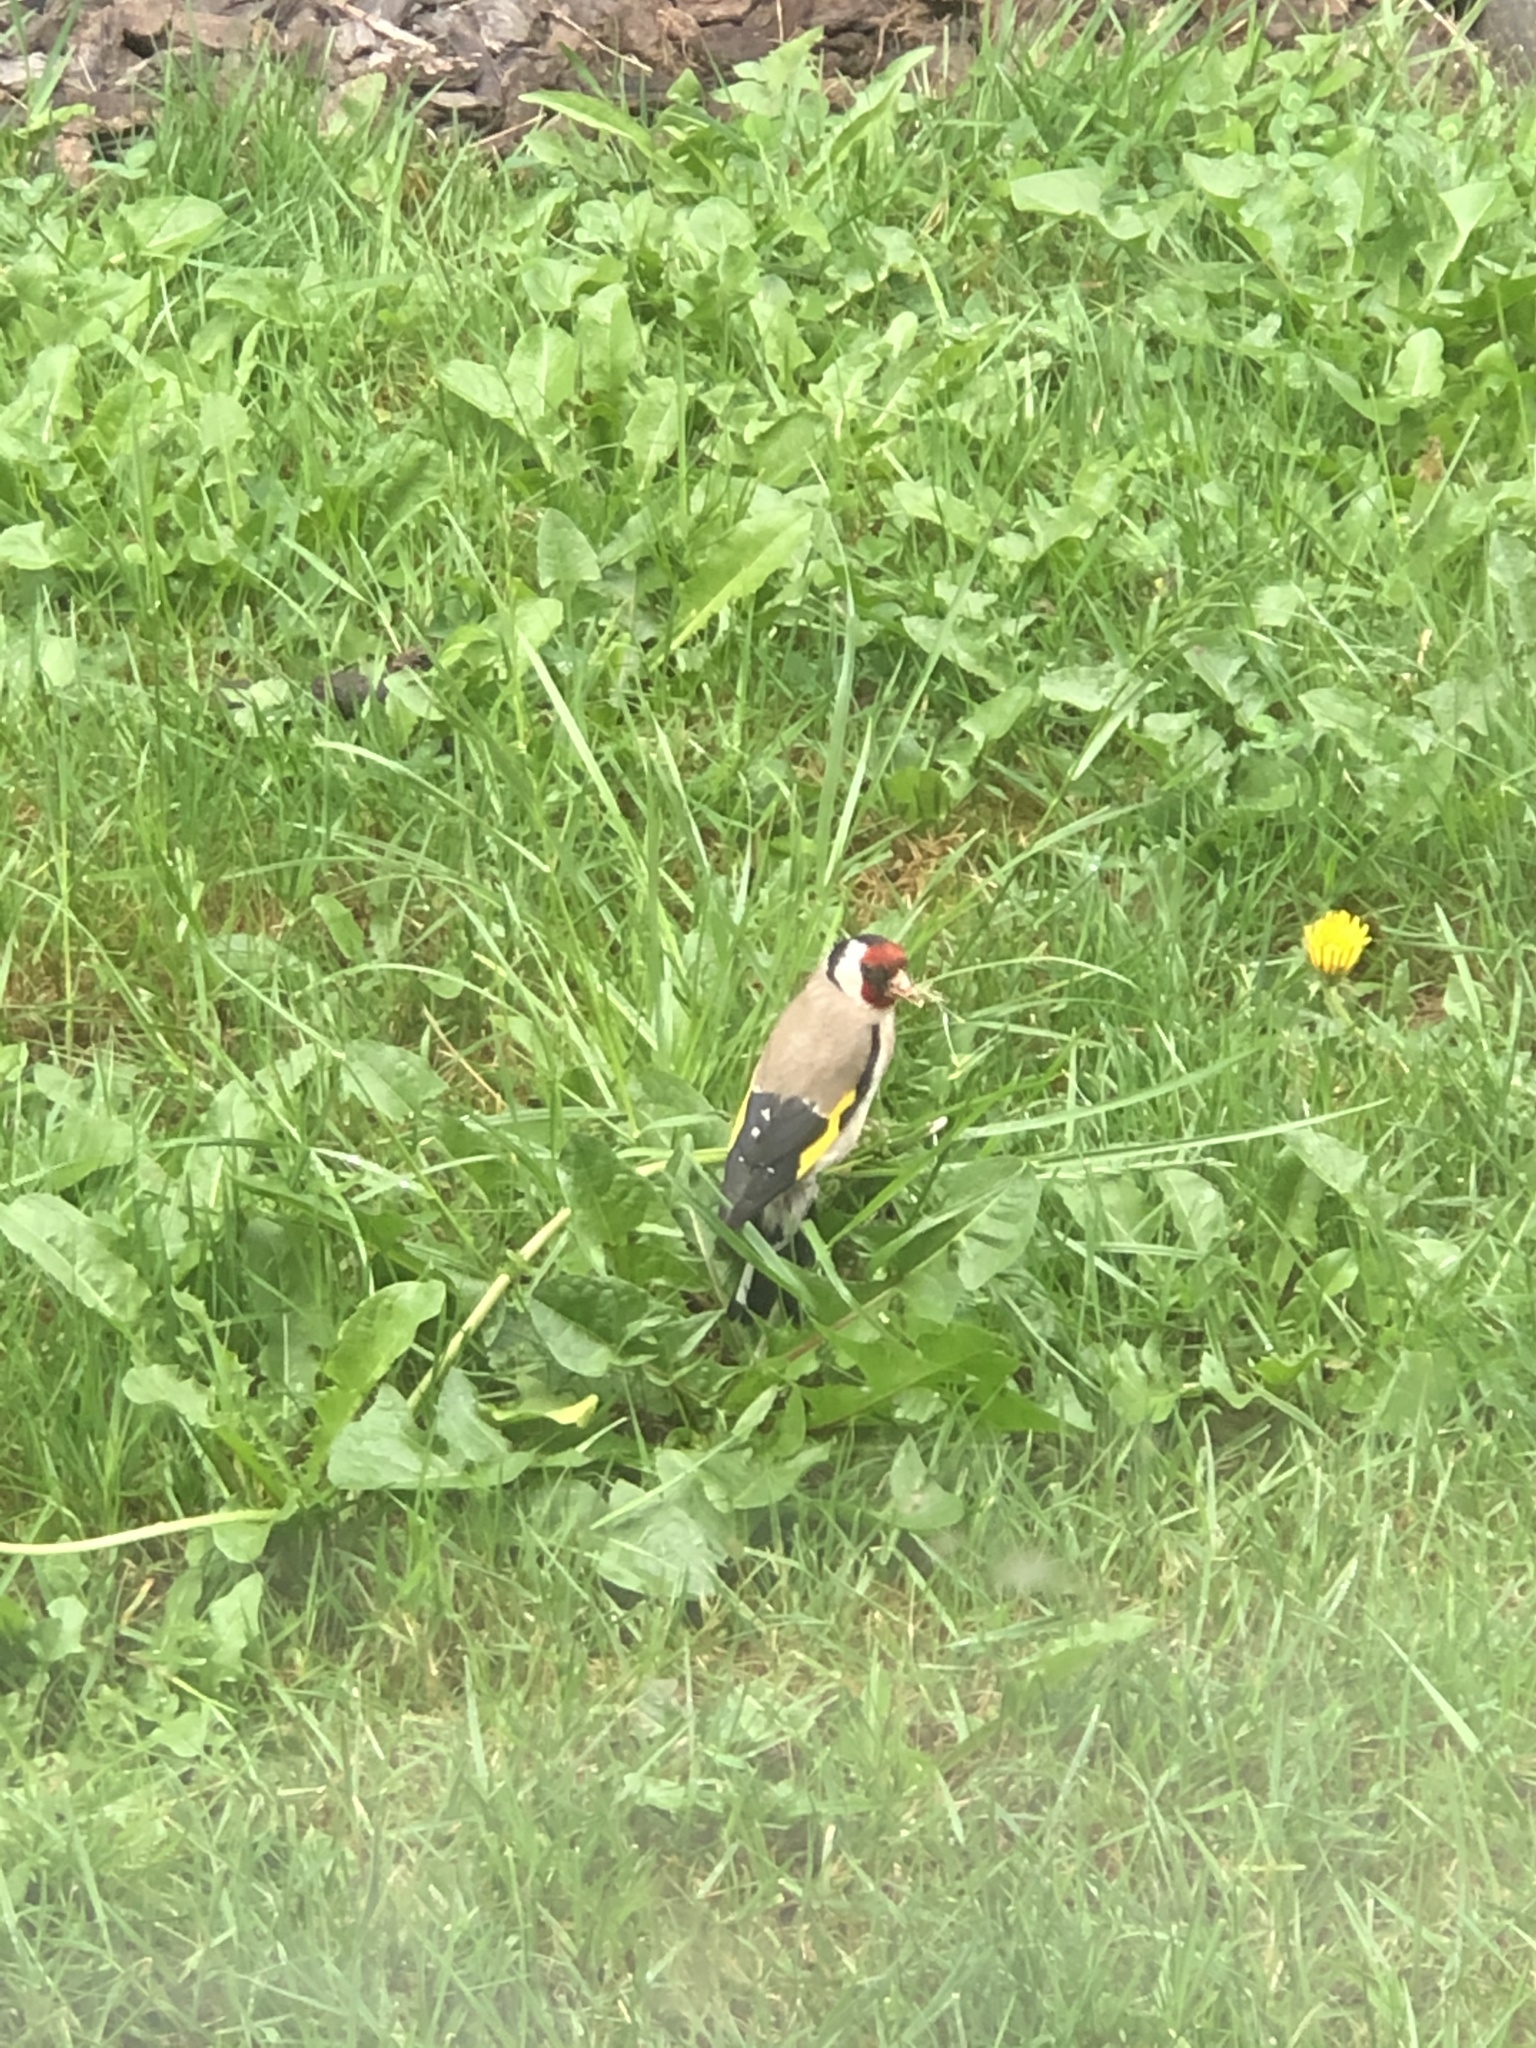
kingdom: Animalia
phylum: Chordata
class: Aves
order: Passeriformes
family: Fringillidae
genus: Carduelis
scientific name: Carduelis carduelis
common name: European goldfinch
